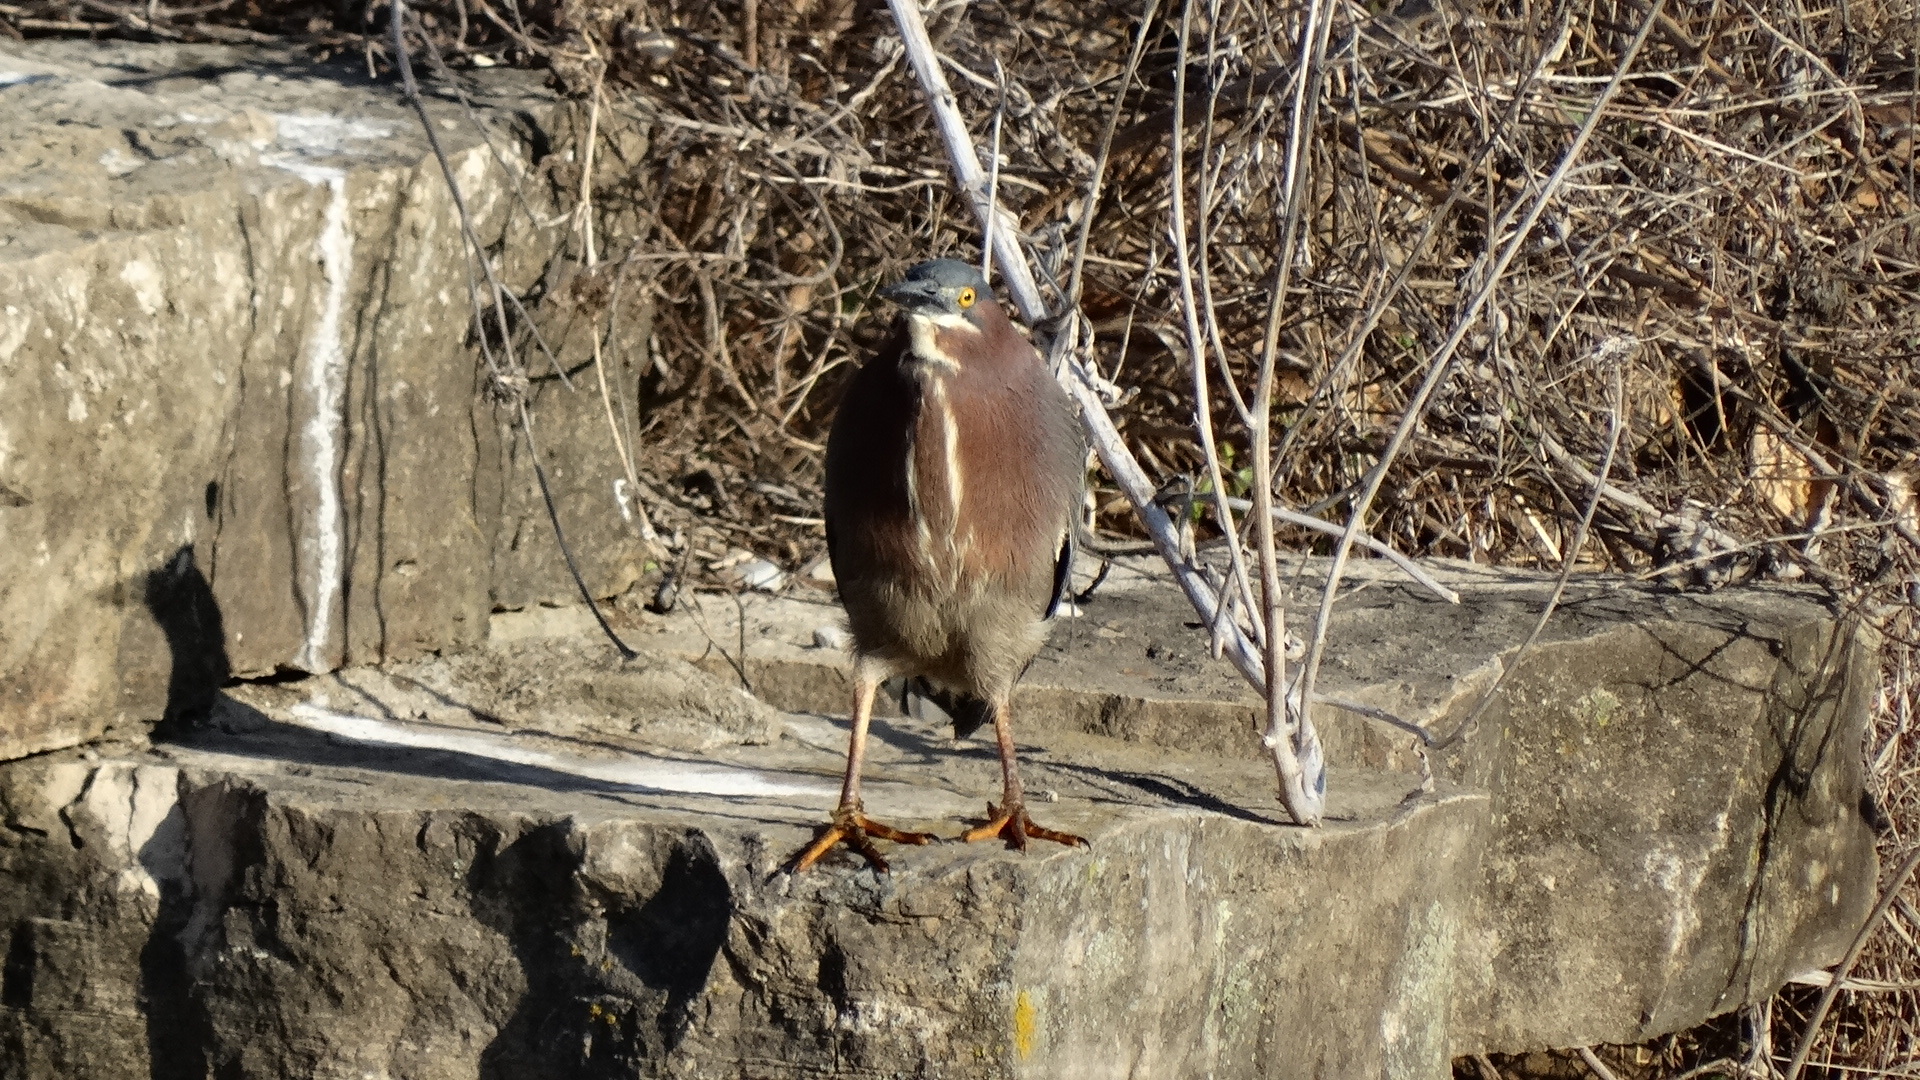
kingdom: Animalia
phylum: Chordata
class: Aves
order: Pelecaniformes
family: Ardeidae
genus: Butorides
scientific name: Butorides virescens
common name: Green heron
